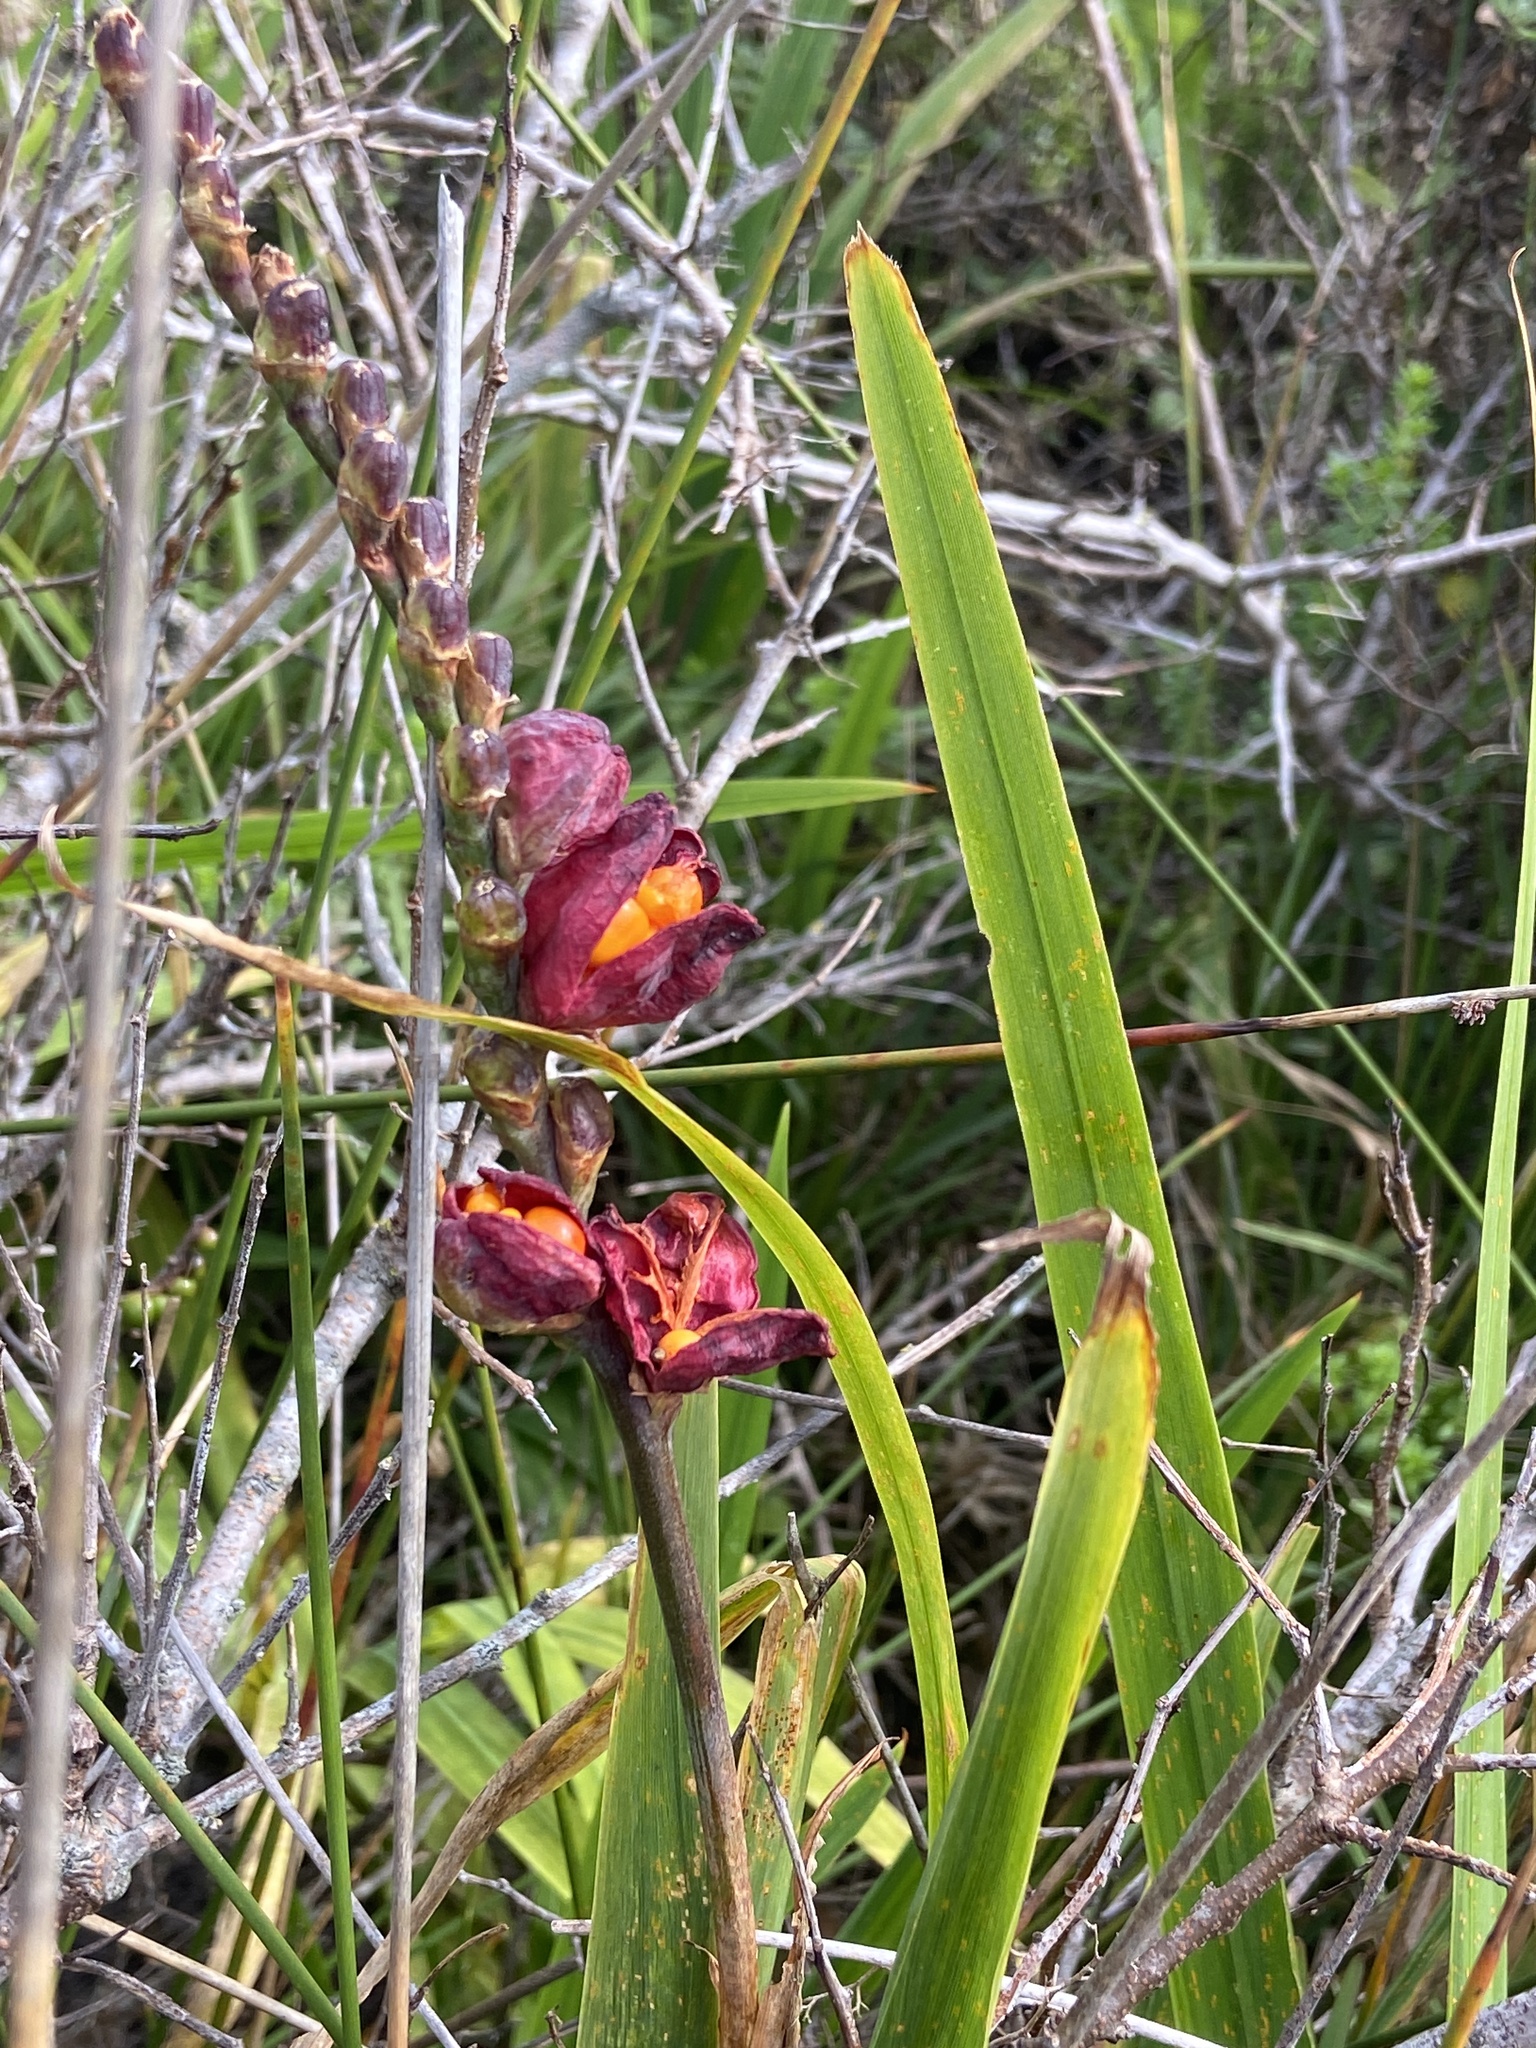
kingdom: Plantae
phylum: Tracheophyta
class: Liliopsida
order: Asparagales
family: Iridaceae
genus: Chasmanthe
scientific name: Chasmanthe aethiopica
